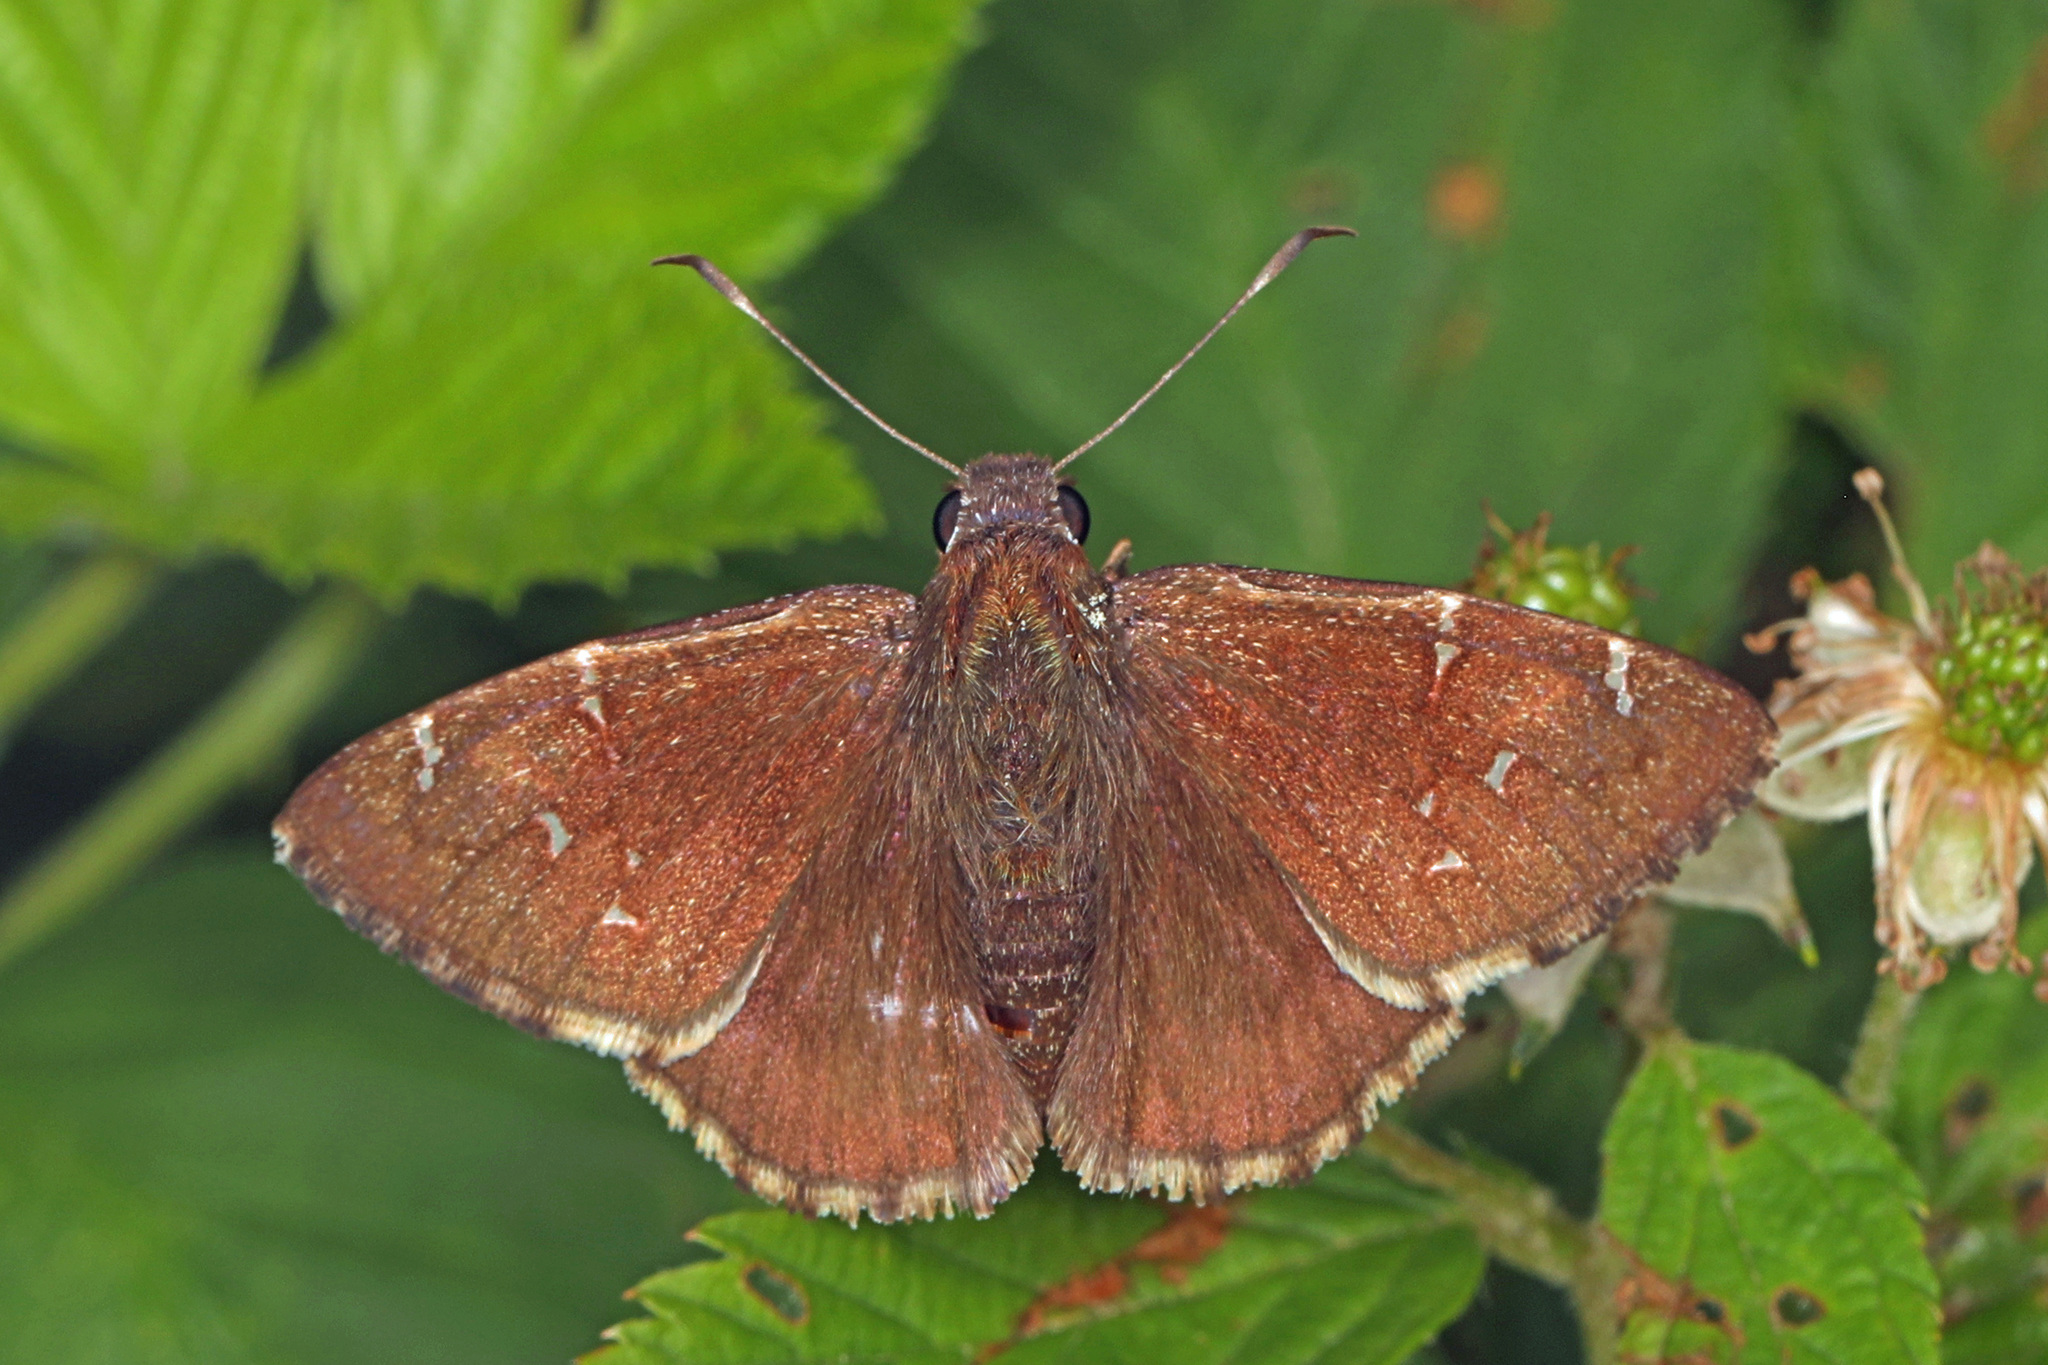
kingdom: Animalia
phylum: Arthropoda
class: Insecta
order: Lepidoptera
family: Hesperiidae
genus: Thorybes
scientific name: Thorybes pylades
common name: Northern cloudywing
